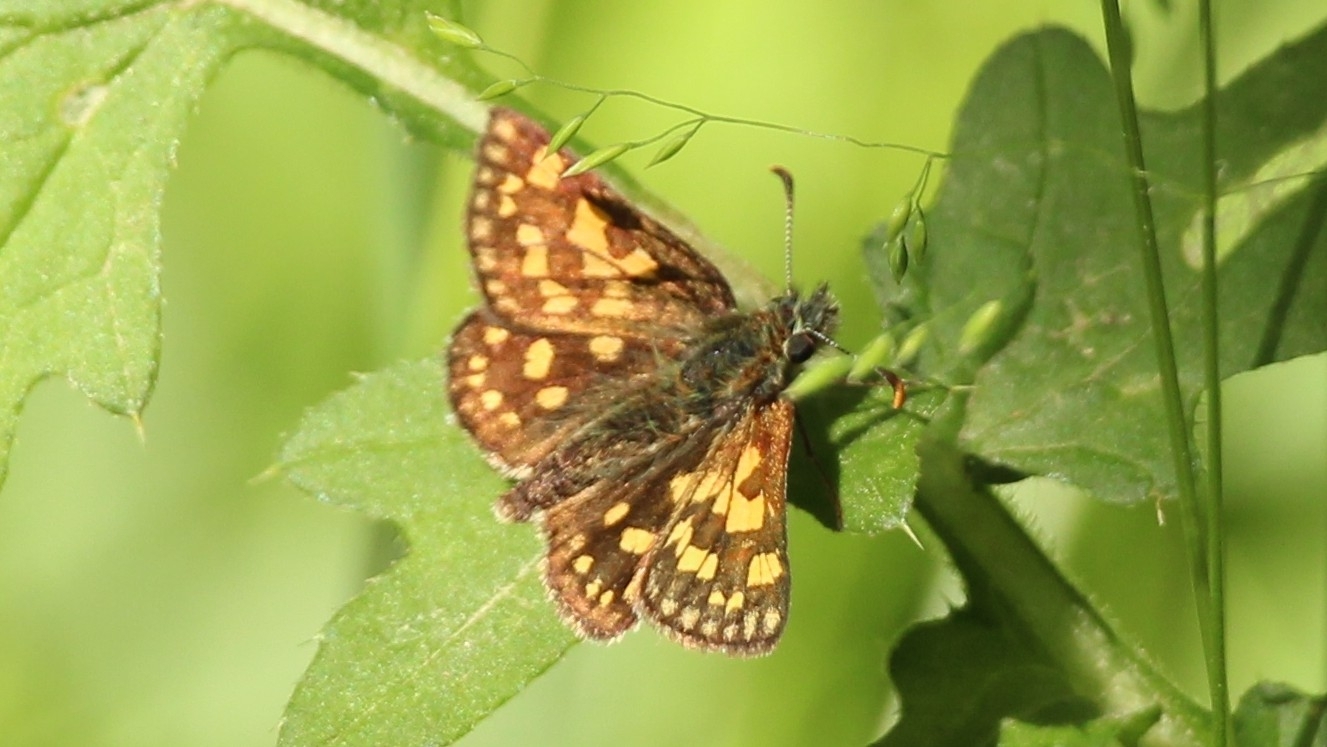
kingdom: Animalia
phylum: Arthropoda
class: Insecta
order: Lepidoptera
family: Hesperiidae
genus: Carterocephalus
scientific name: Carterocephalus palaemon
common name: Chequered skipper
